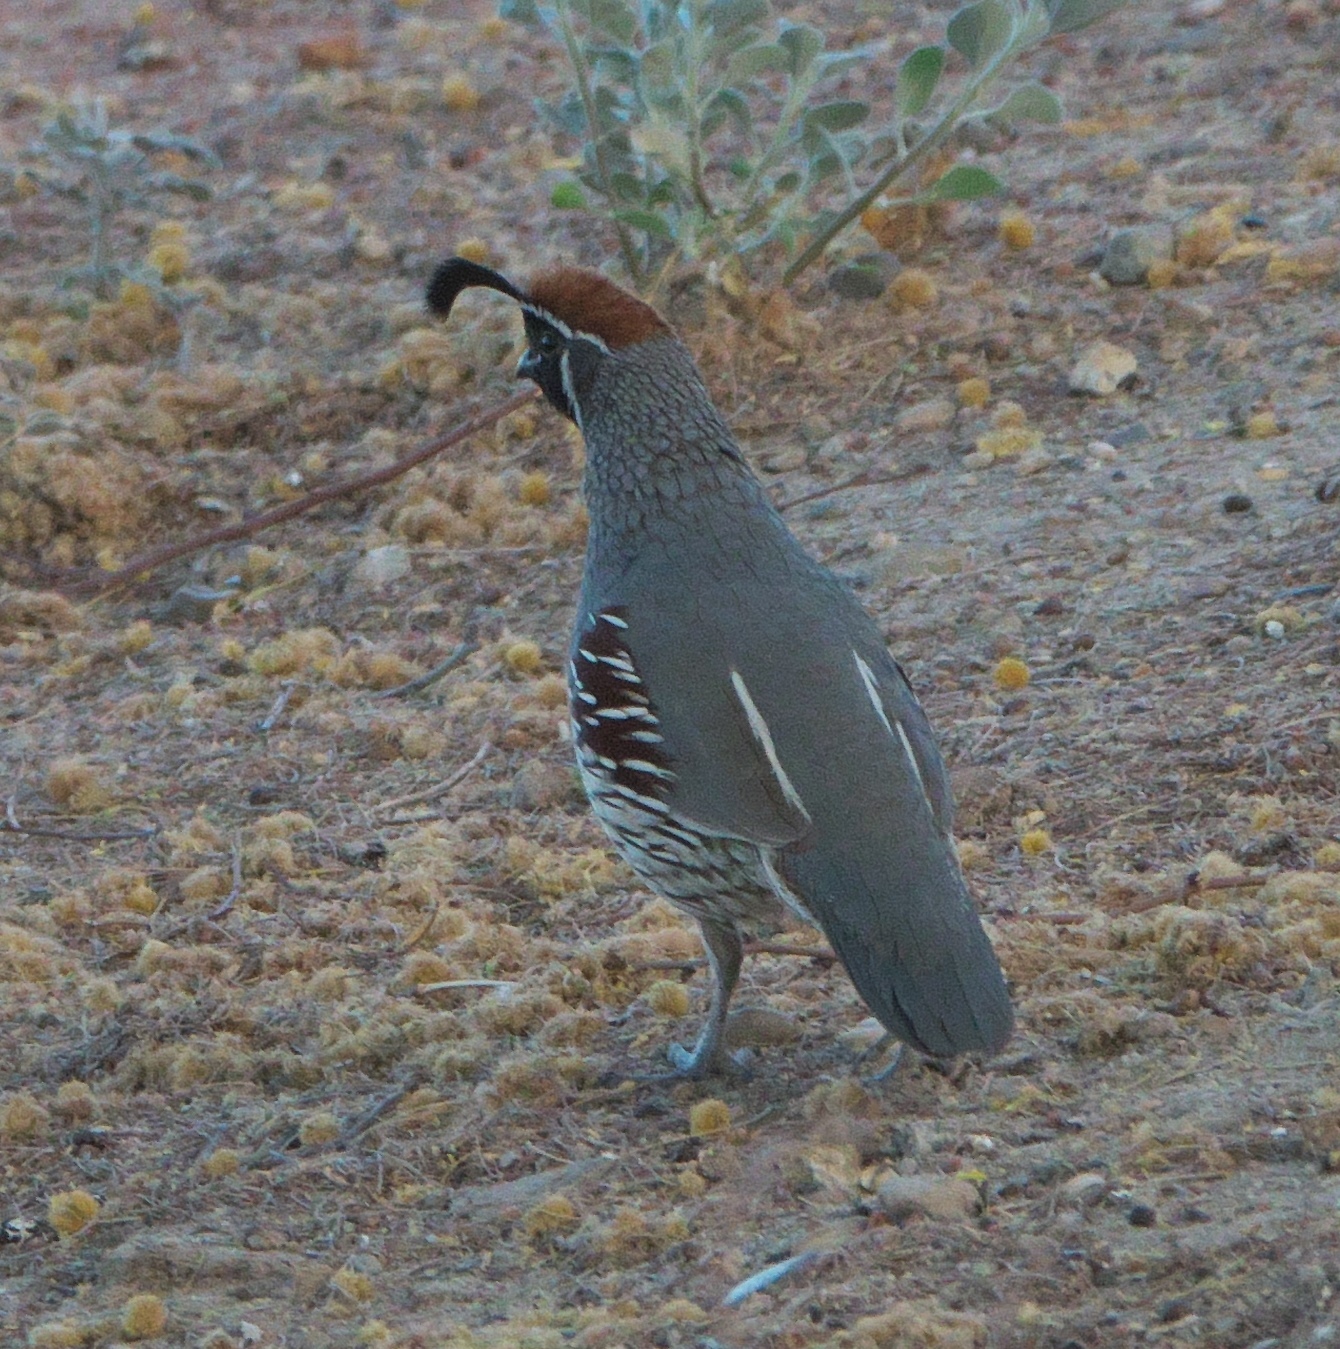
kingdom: Animalia
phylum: Chordata
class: Aves
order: Galliformes
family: Odontophoridae
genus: Callipepla
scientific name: Callipepla gambelii
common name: Gambel's quail
